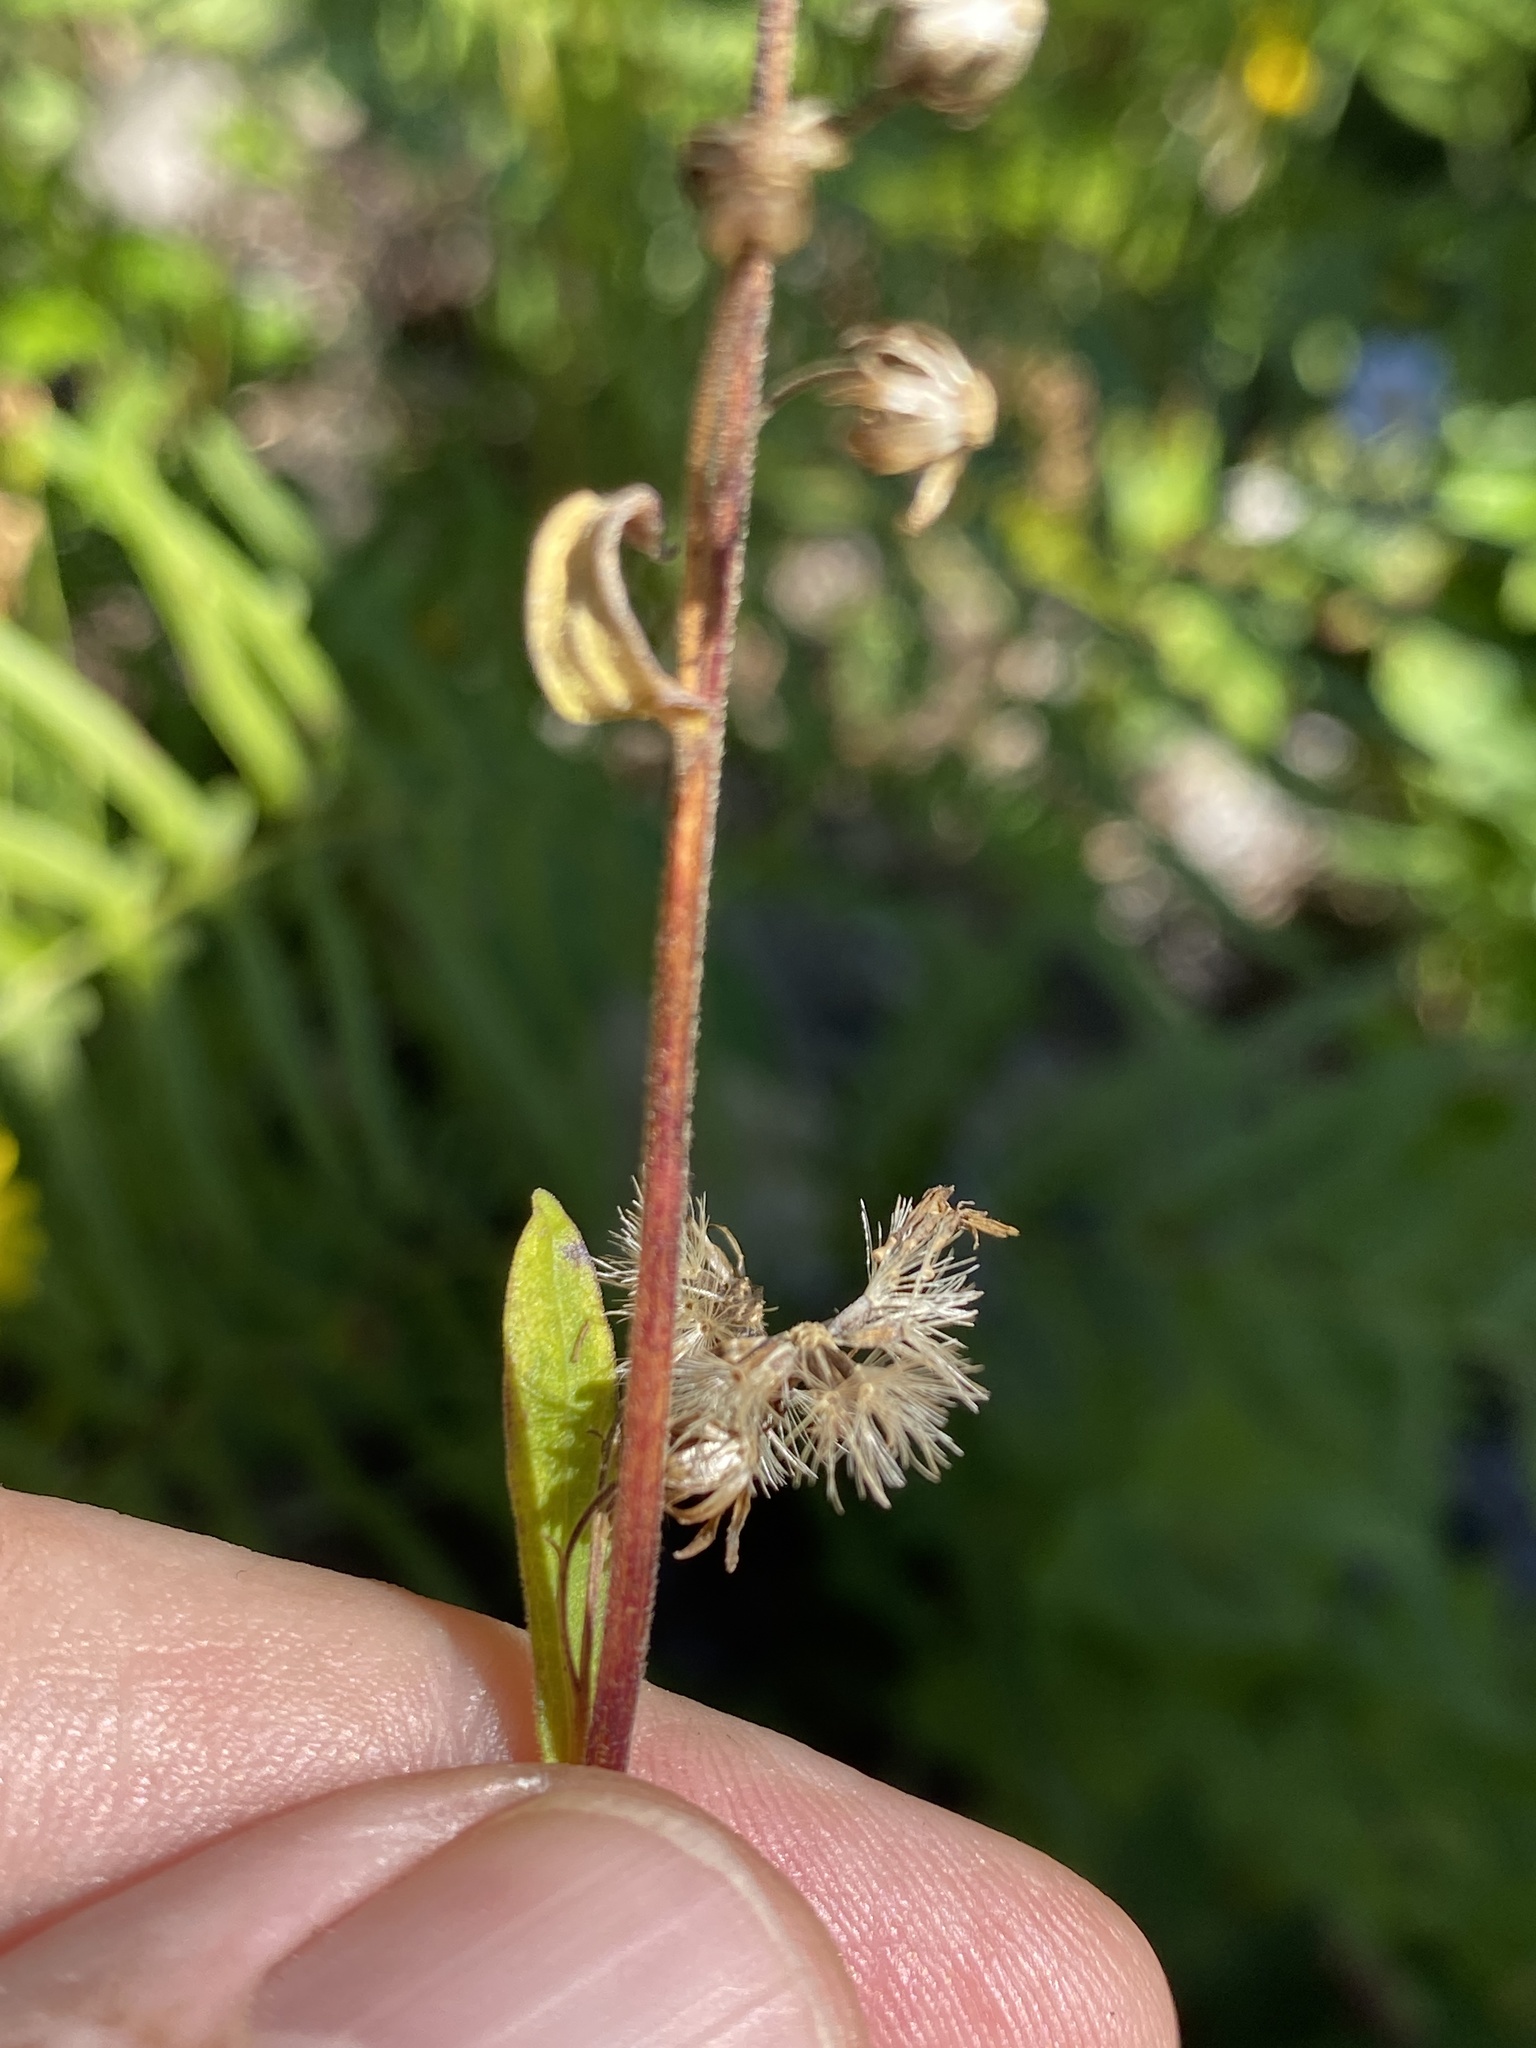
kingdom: Plantae
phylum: Tracheophyta
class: Magnoliopsida
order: Asterales
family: Asteraceae
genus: Solidago
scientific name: Solidago verna
